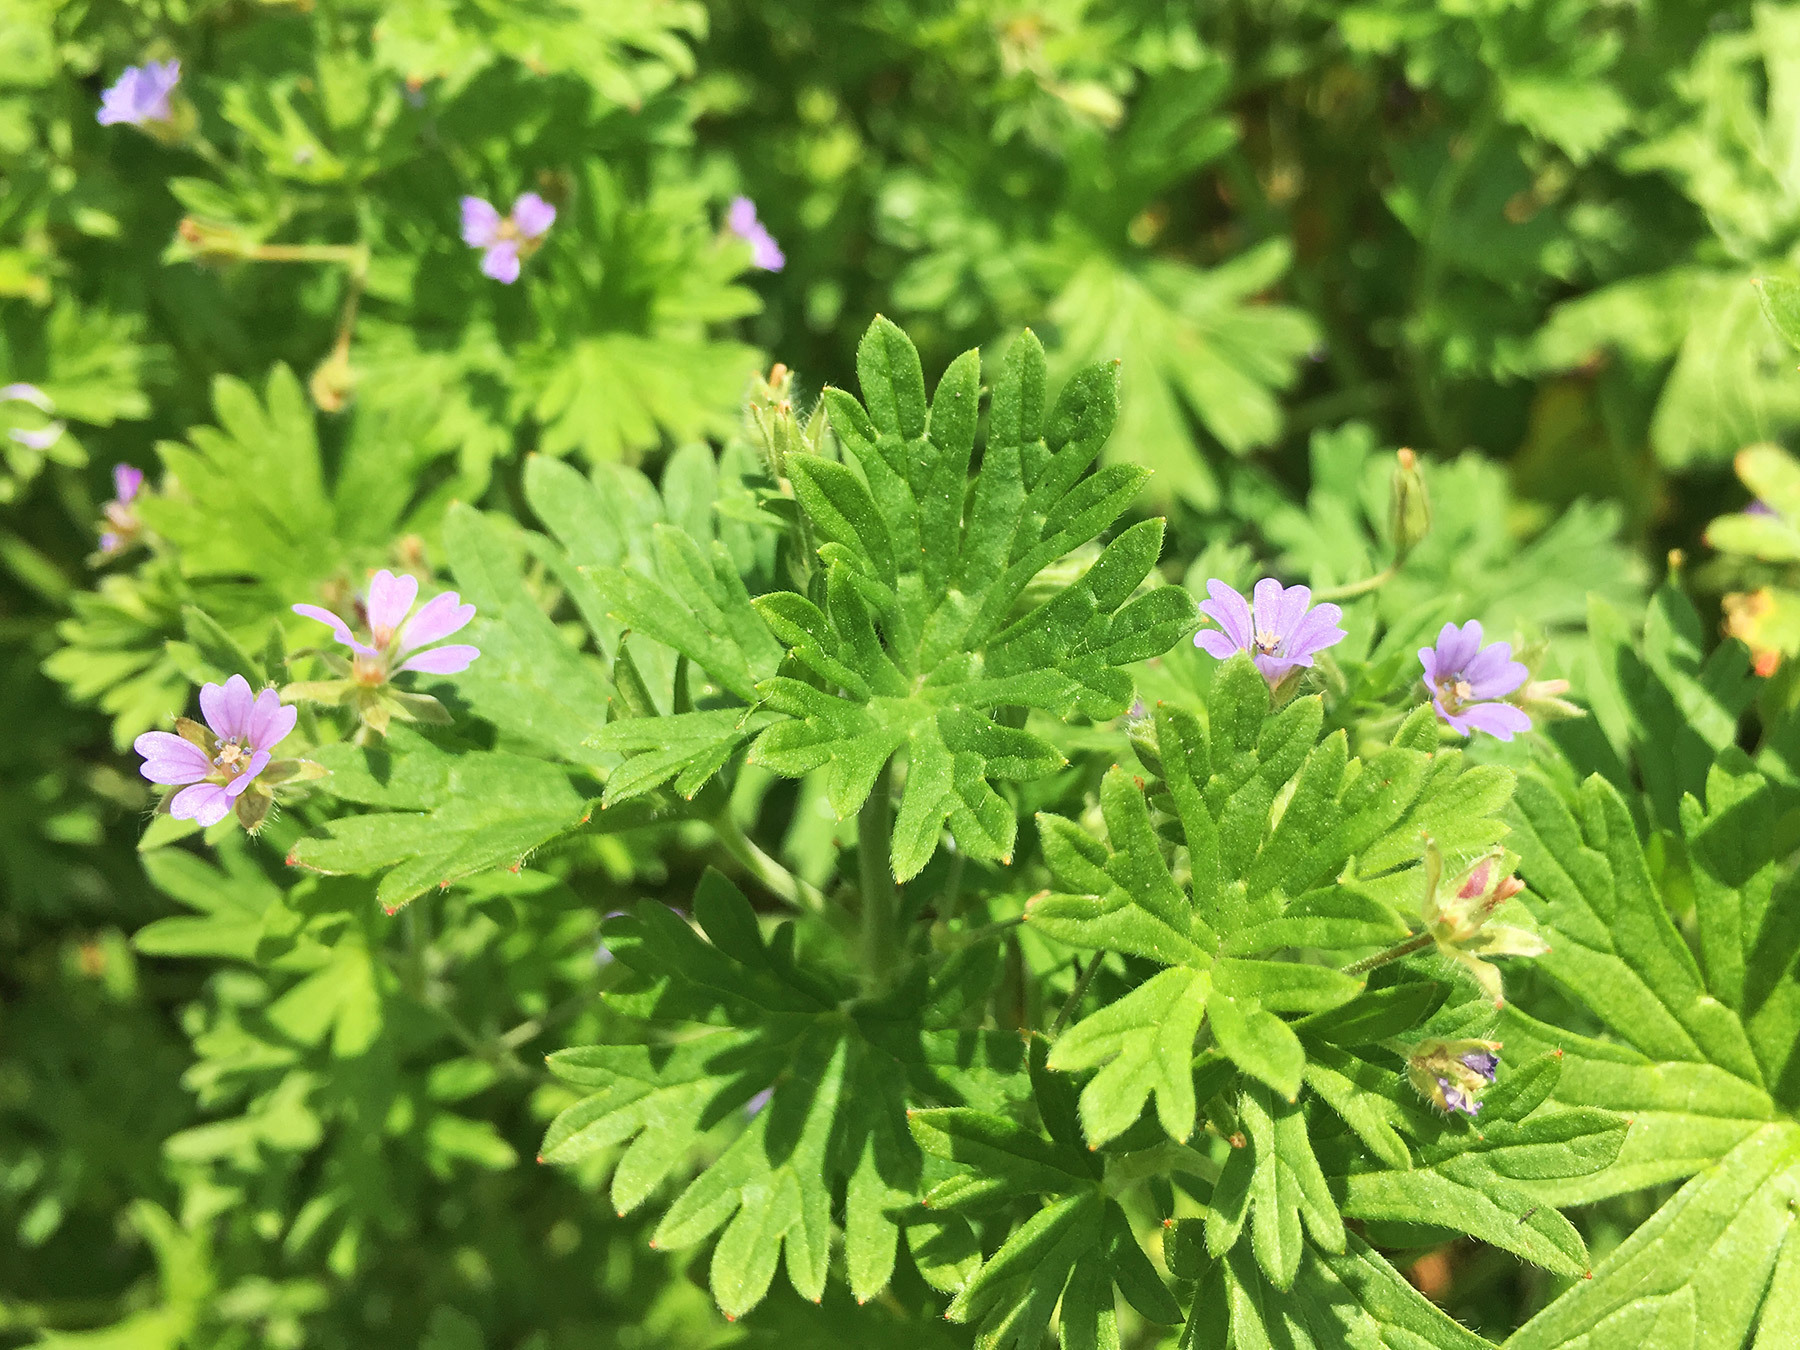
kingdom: Plantae
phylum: Tracheophyta
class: Magnoliopsida
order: Geraniales
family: Geraniaceae
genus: Geranium
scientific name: Geranium pusillum
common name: Small geranium
